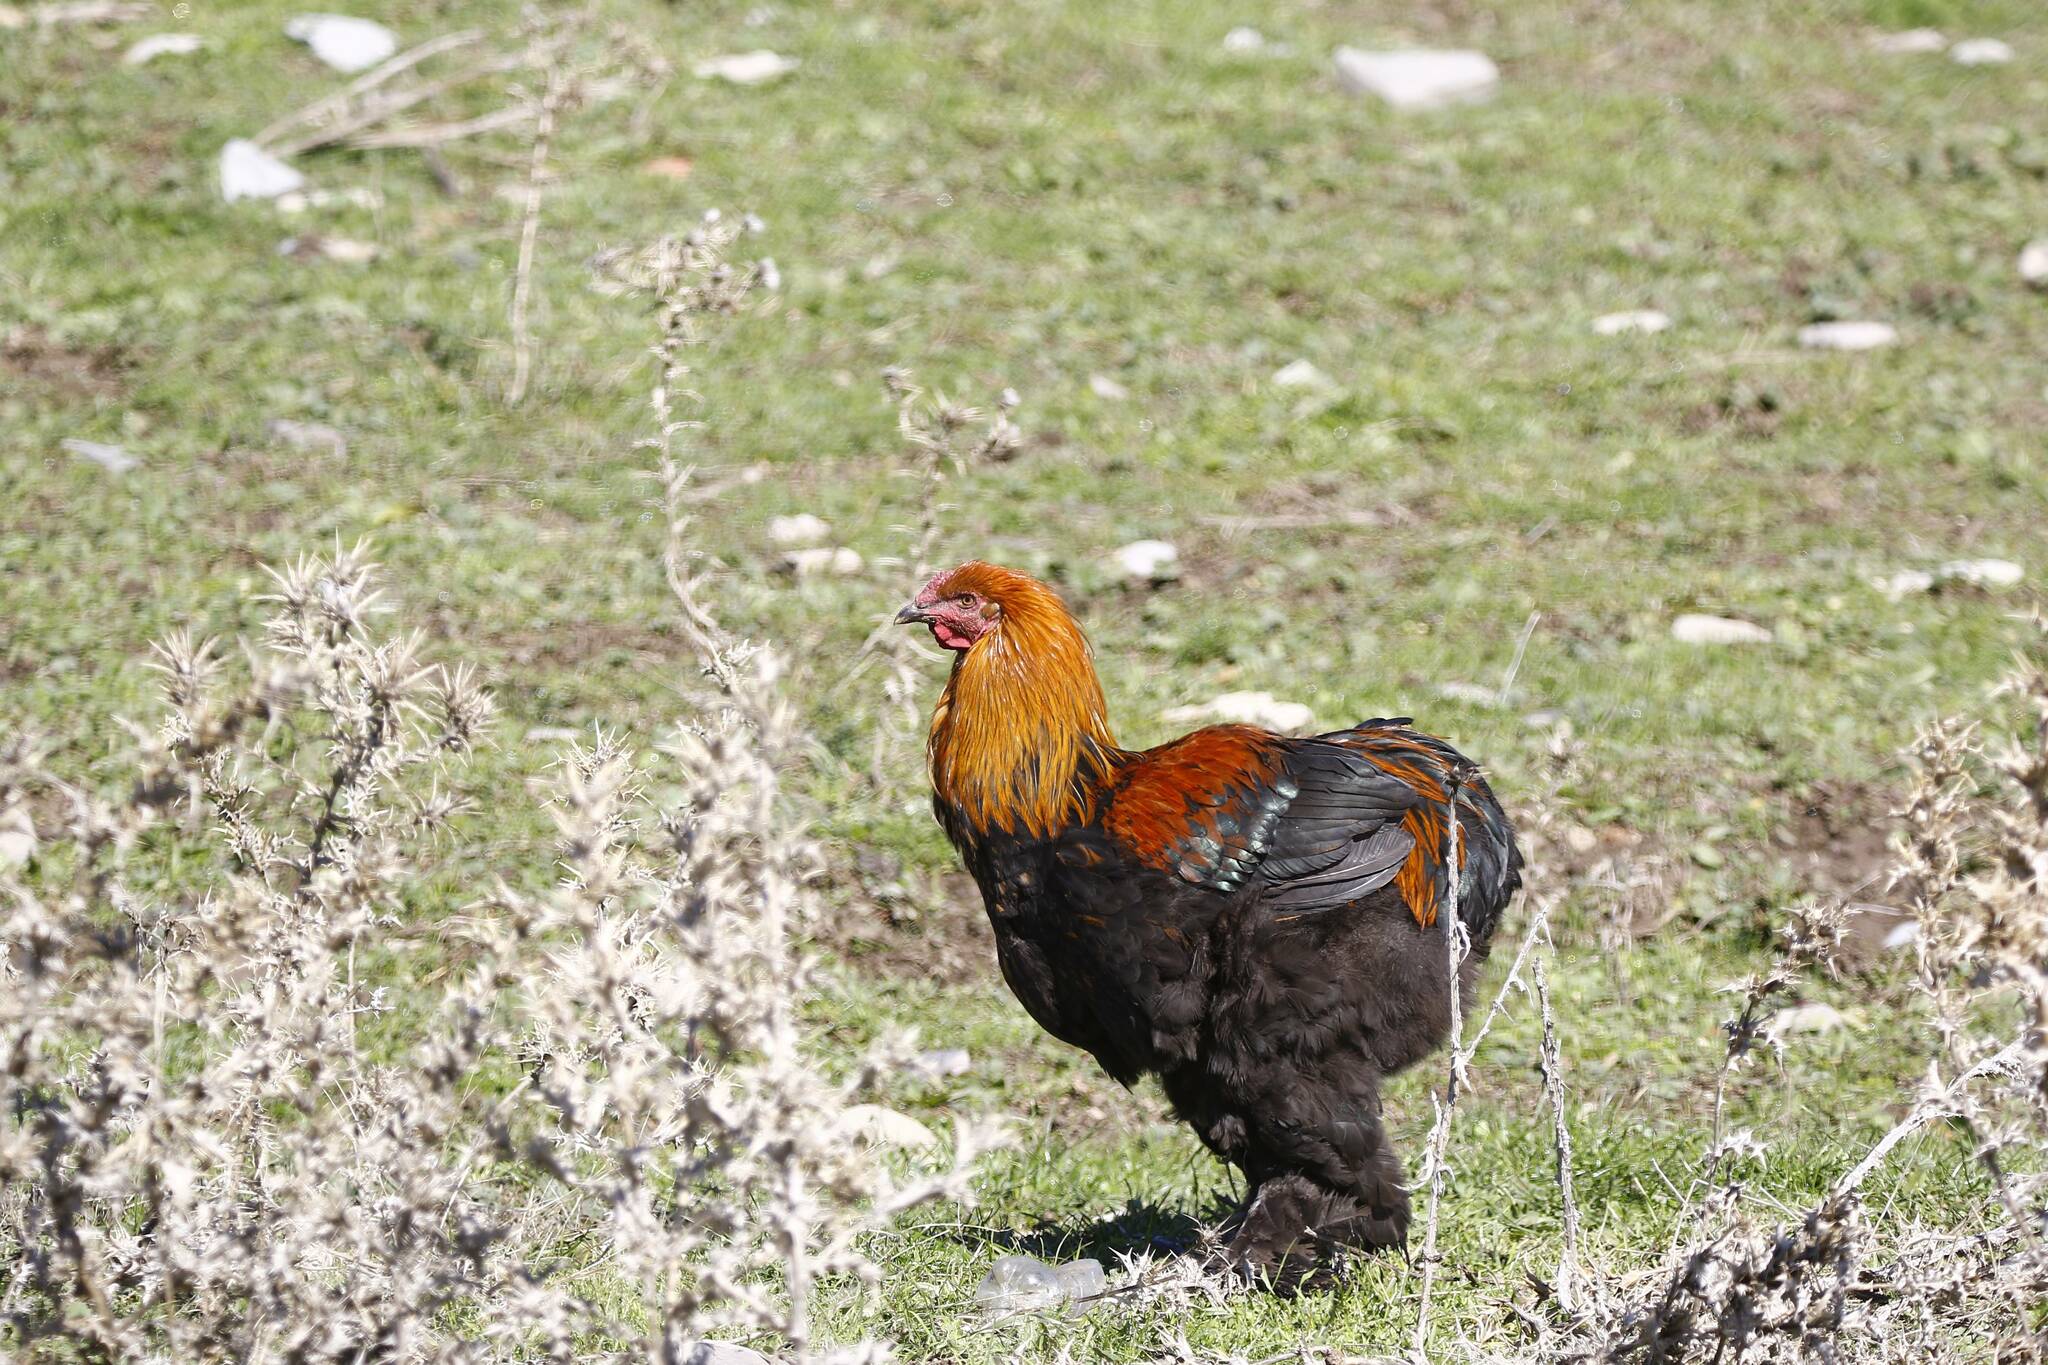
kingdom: Animalia
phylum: Chordata
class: Aves
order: Galliformes
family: Phasianidae
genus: Gallus
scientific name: Gallus gallus
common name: Red junglefowl
